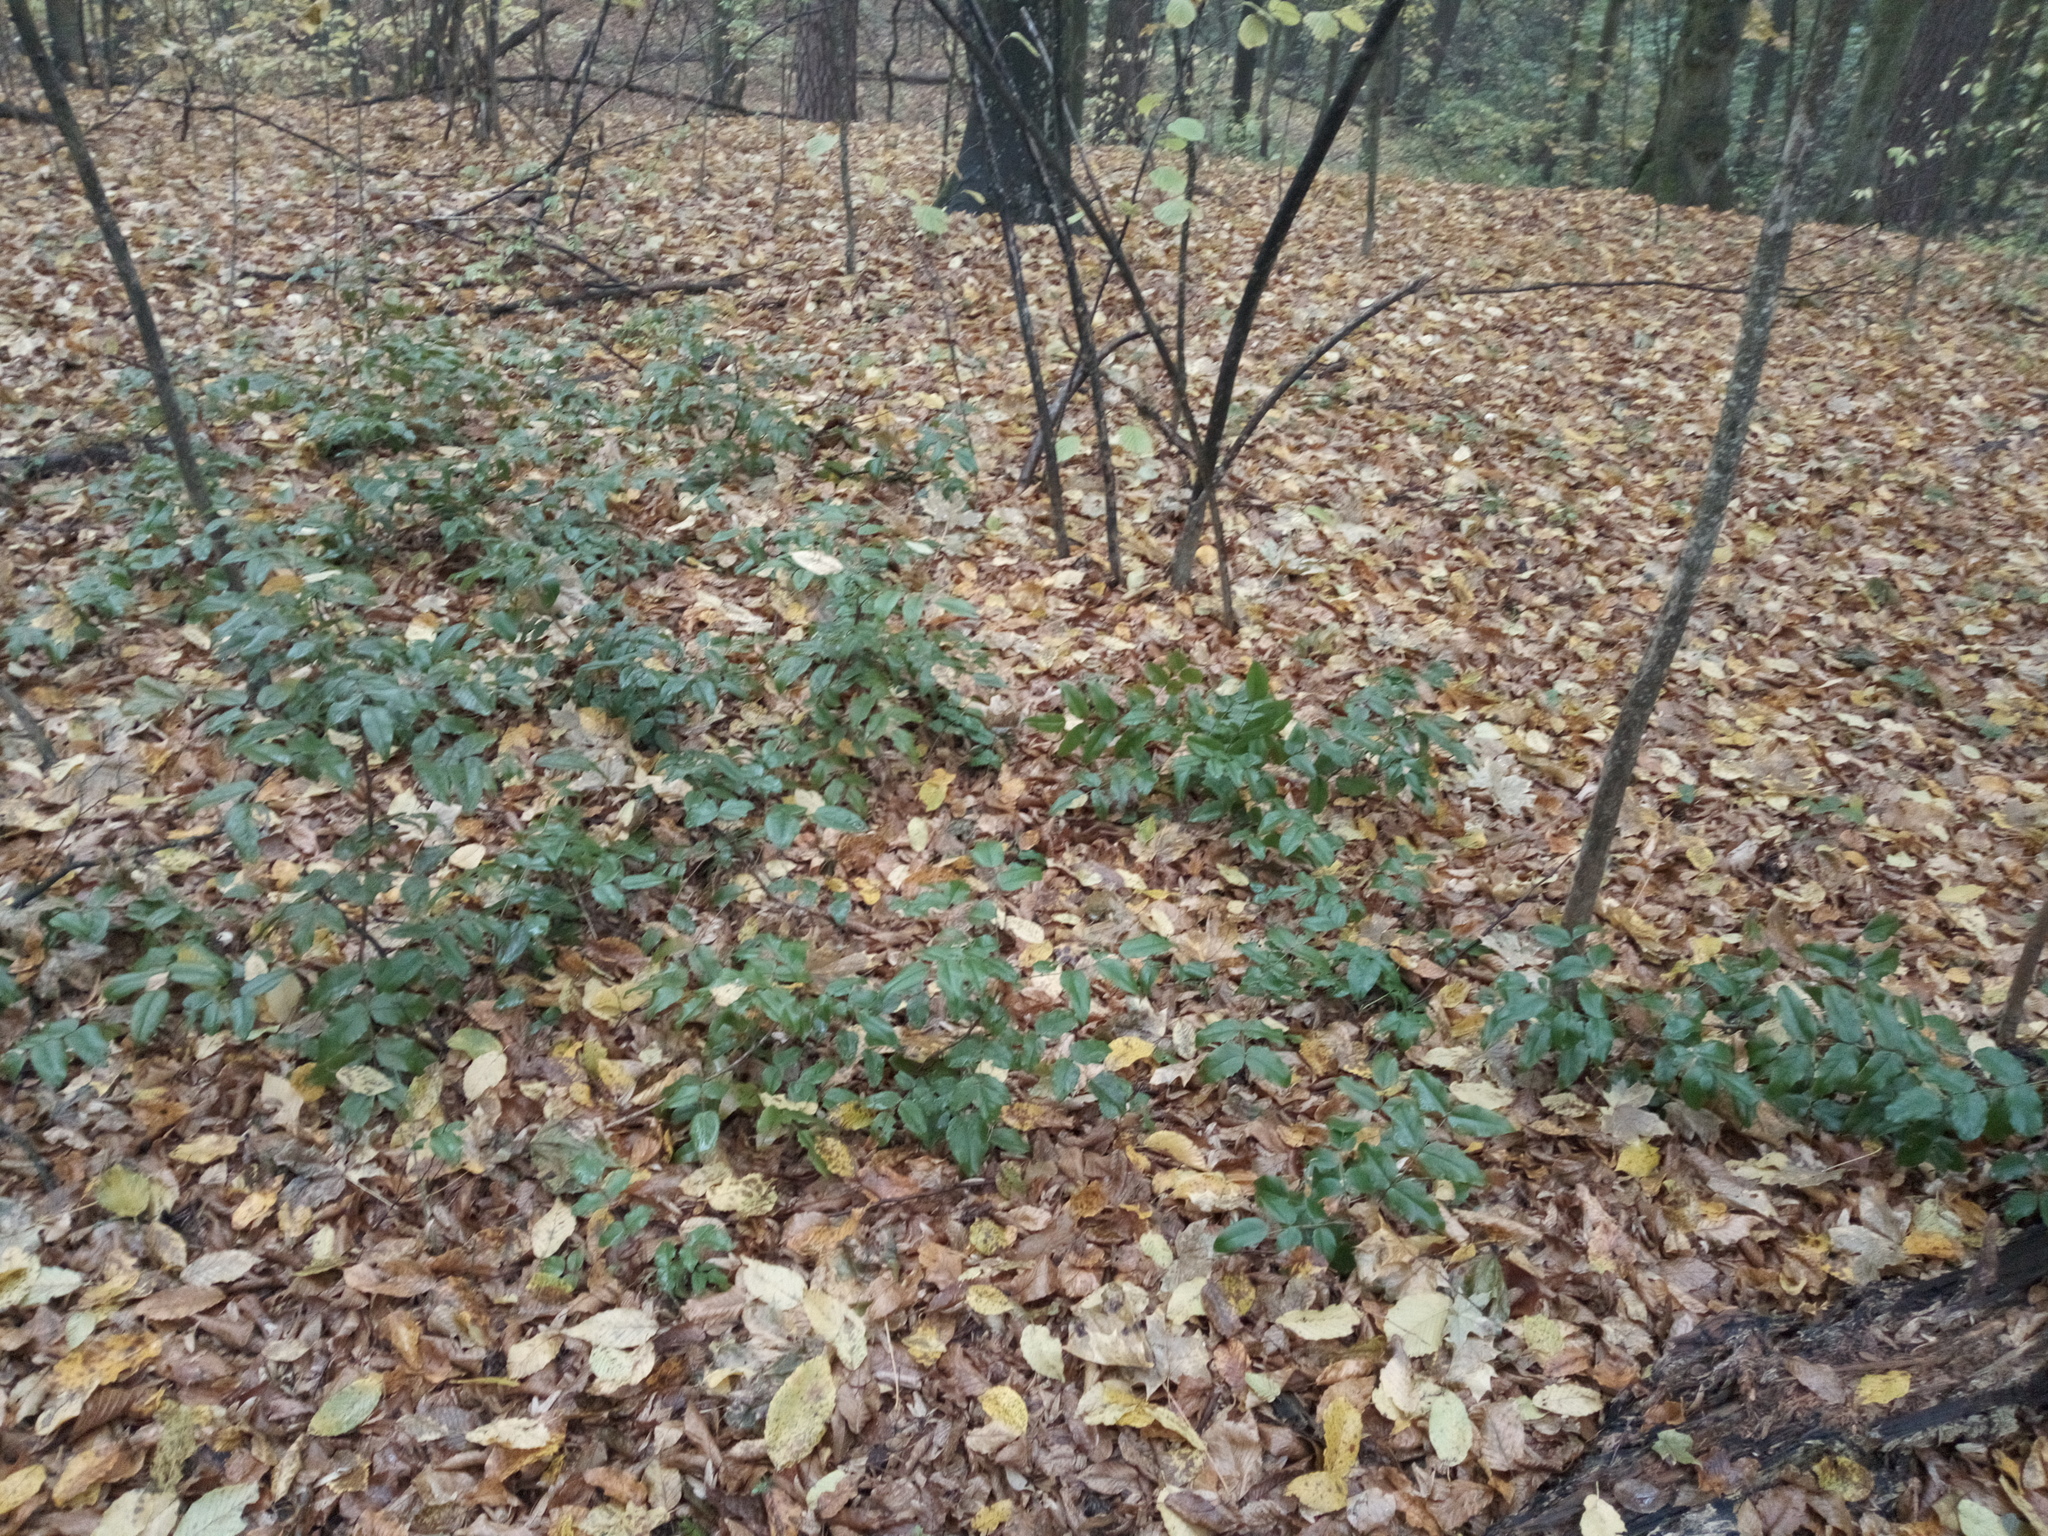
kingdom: Plantae
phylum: Tracheophyta
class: Magnoliopsida
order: Ranunculales
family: Berberidaceae
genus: Mahonia
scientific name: Mahonia aquifolium
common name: Oregon-grape
